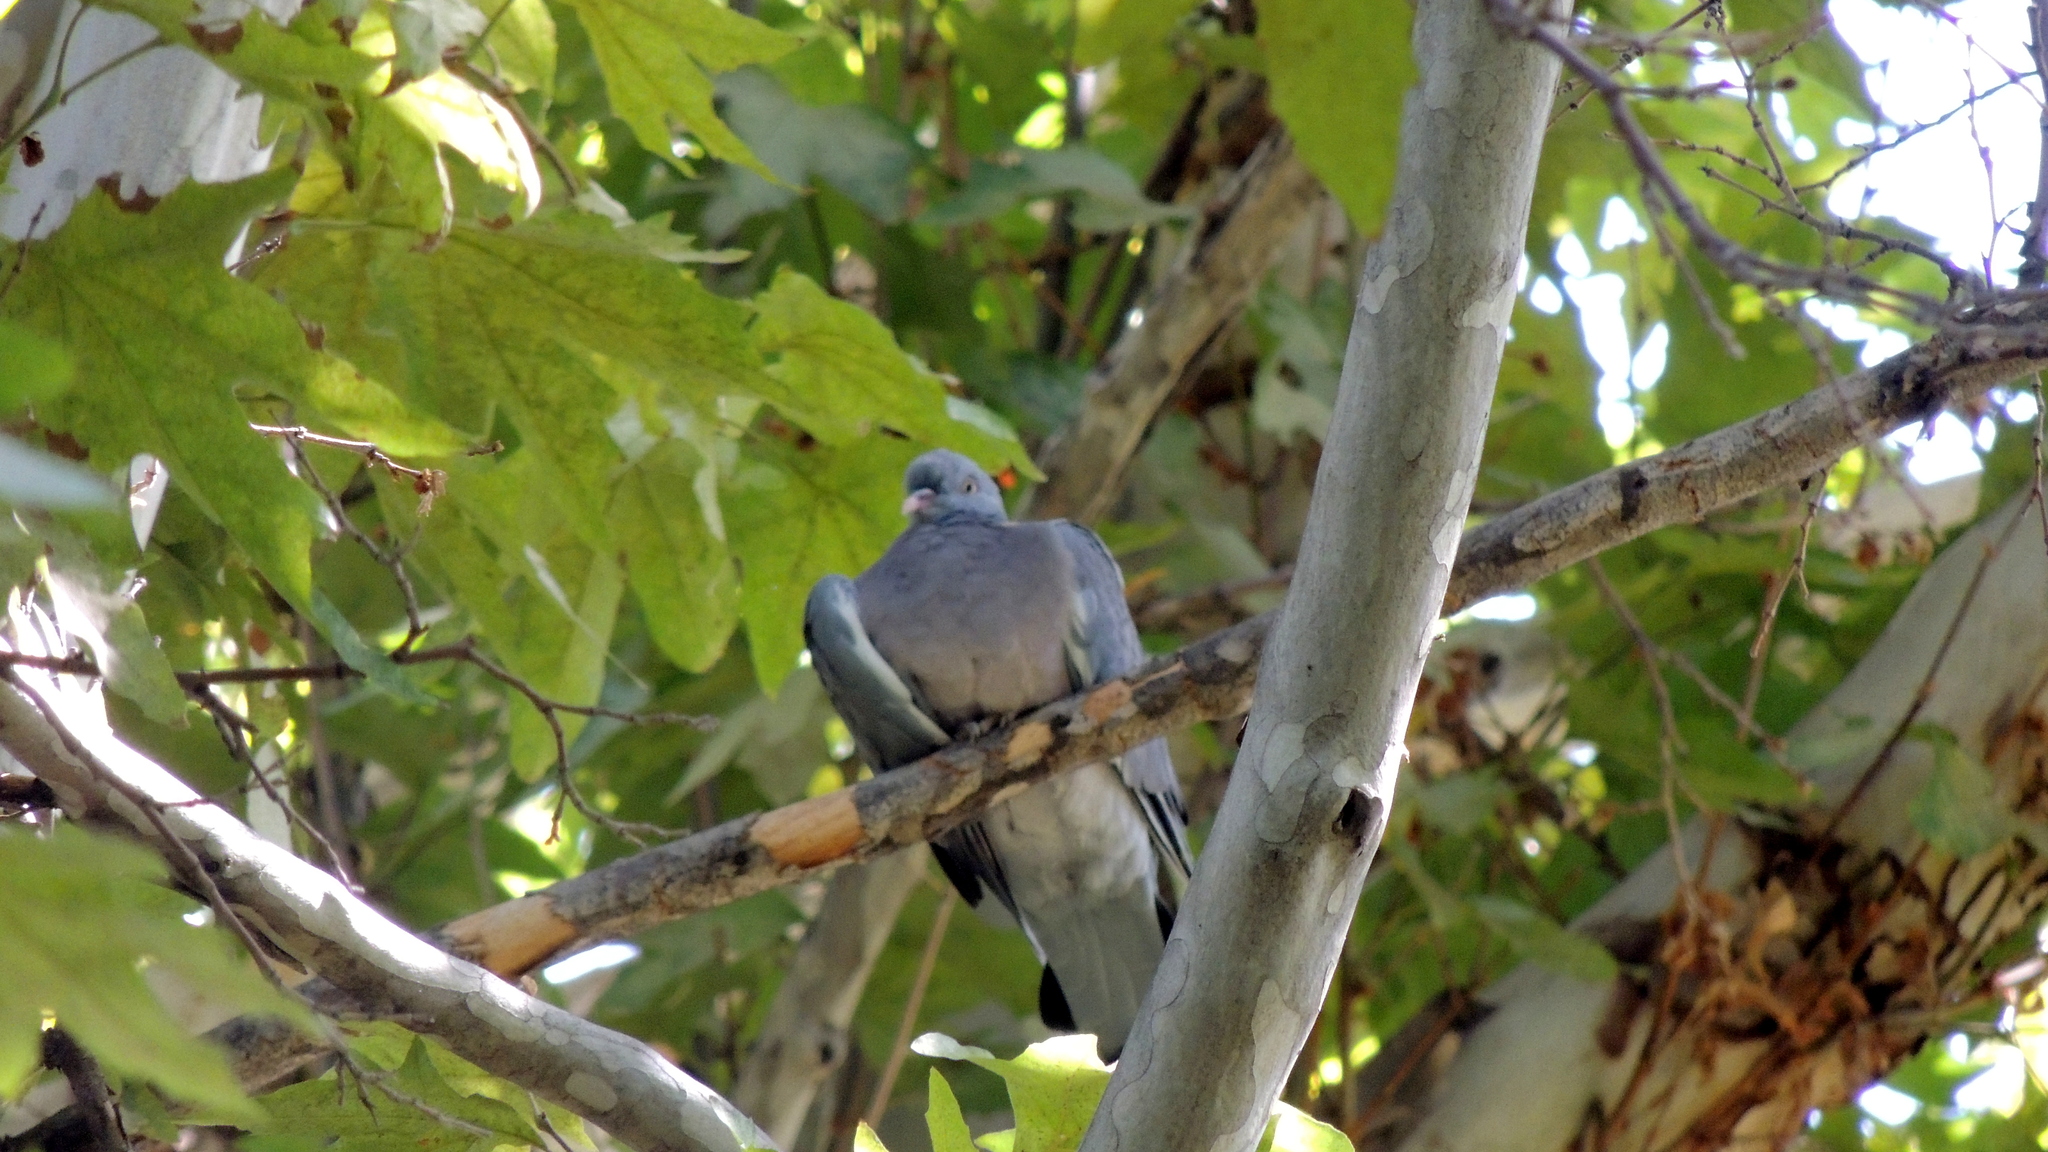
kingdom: Animalia
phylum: Chordata
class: Aves
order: Columbiformes
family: Columbidae
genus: Columba
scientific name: Columba palumbus
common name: Common wood pigeon
